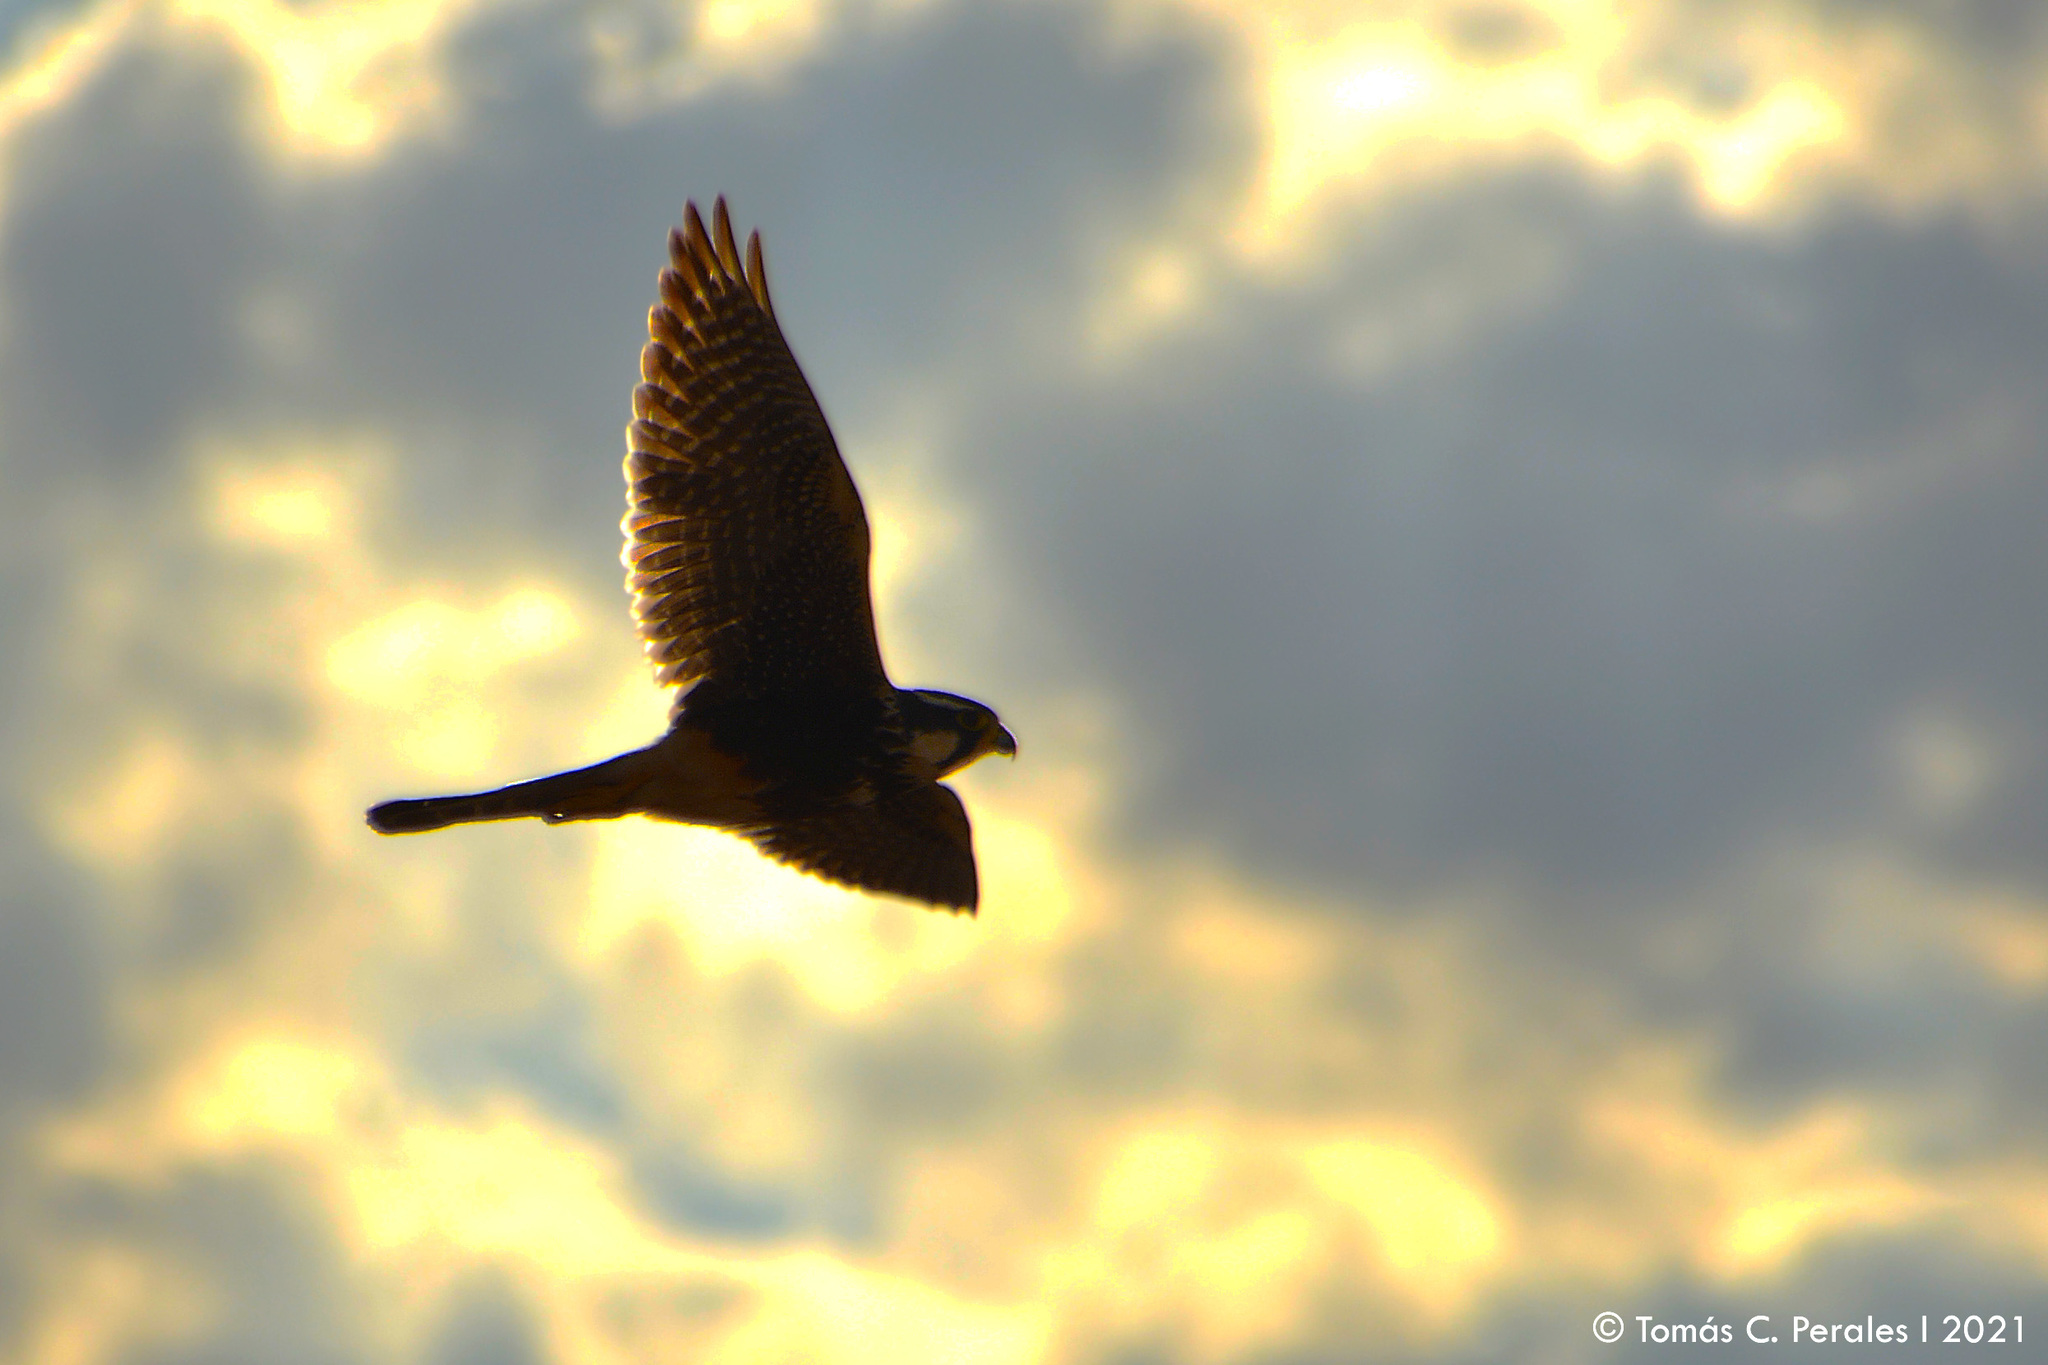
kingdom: Animalia
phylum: Chordata
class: Aves
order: Falconiformes
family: Falconidae
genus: Falco
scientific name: Falco femoralis
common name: Aplomado falcon
